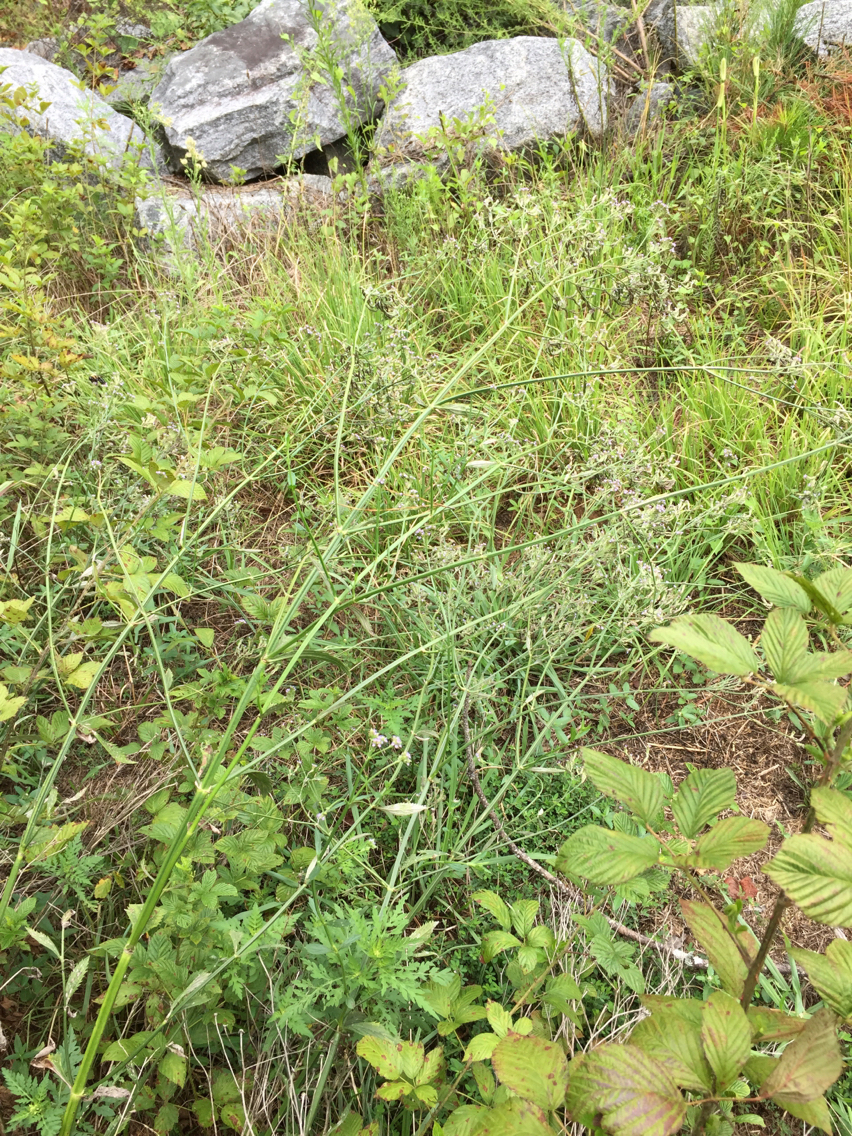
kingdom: Plantae
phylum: Tracheophyta
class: Magnoliopsida
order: Lamiales
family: Verbenaceae
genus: Verbena
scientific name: Verbena brasiliensis
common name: Brazilian vervain
